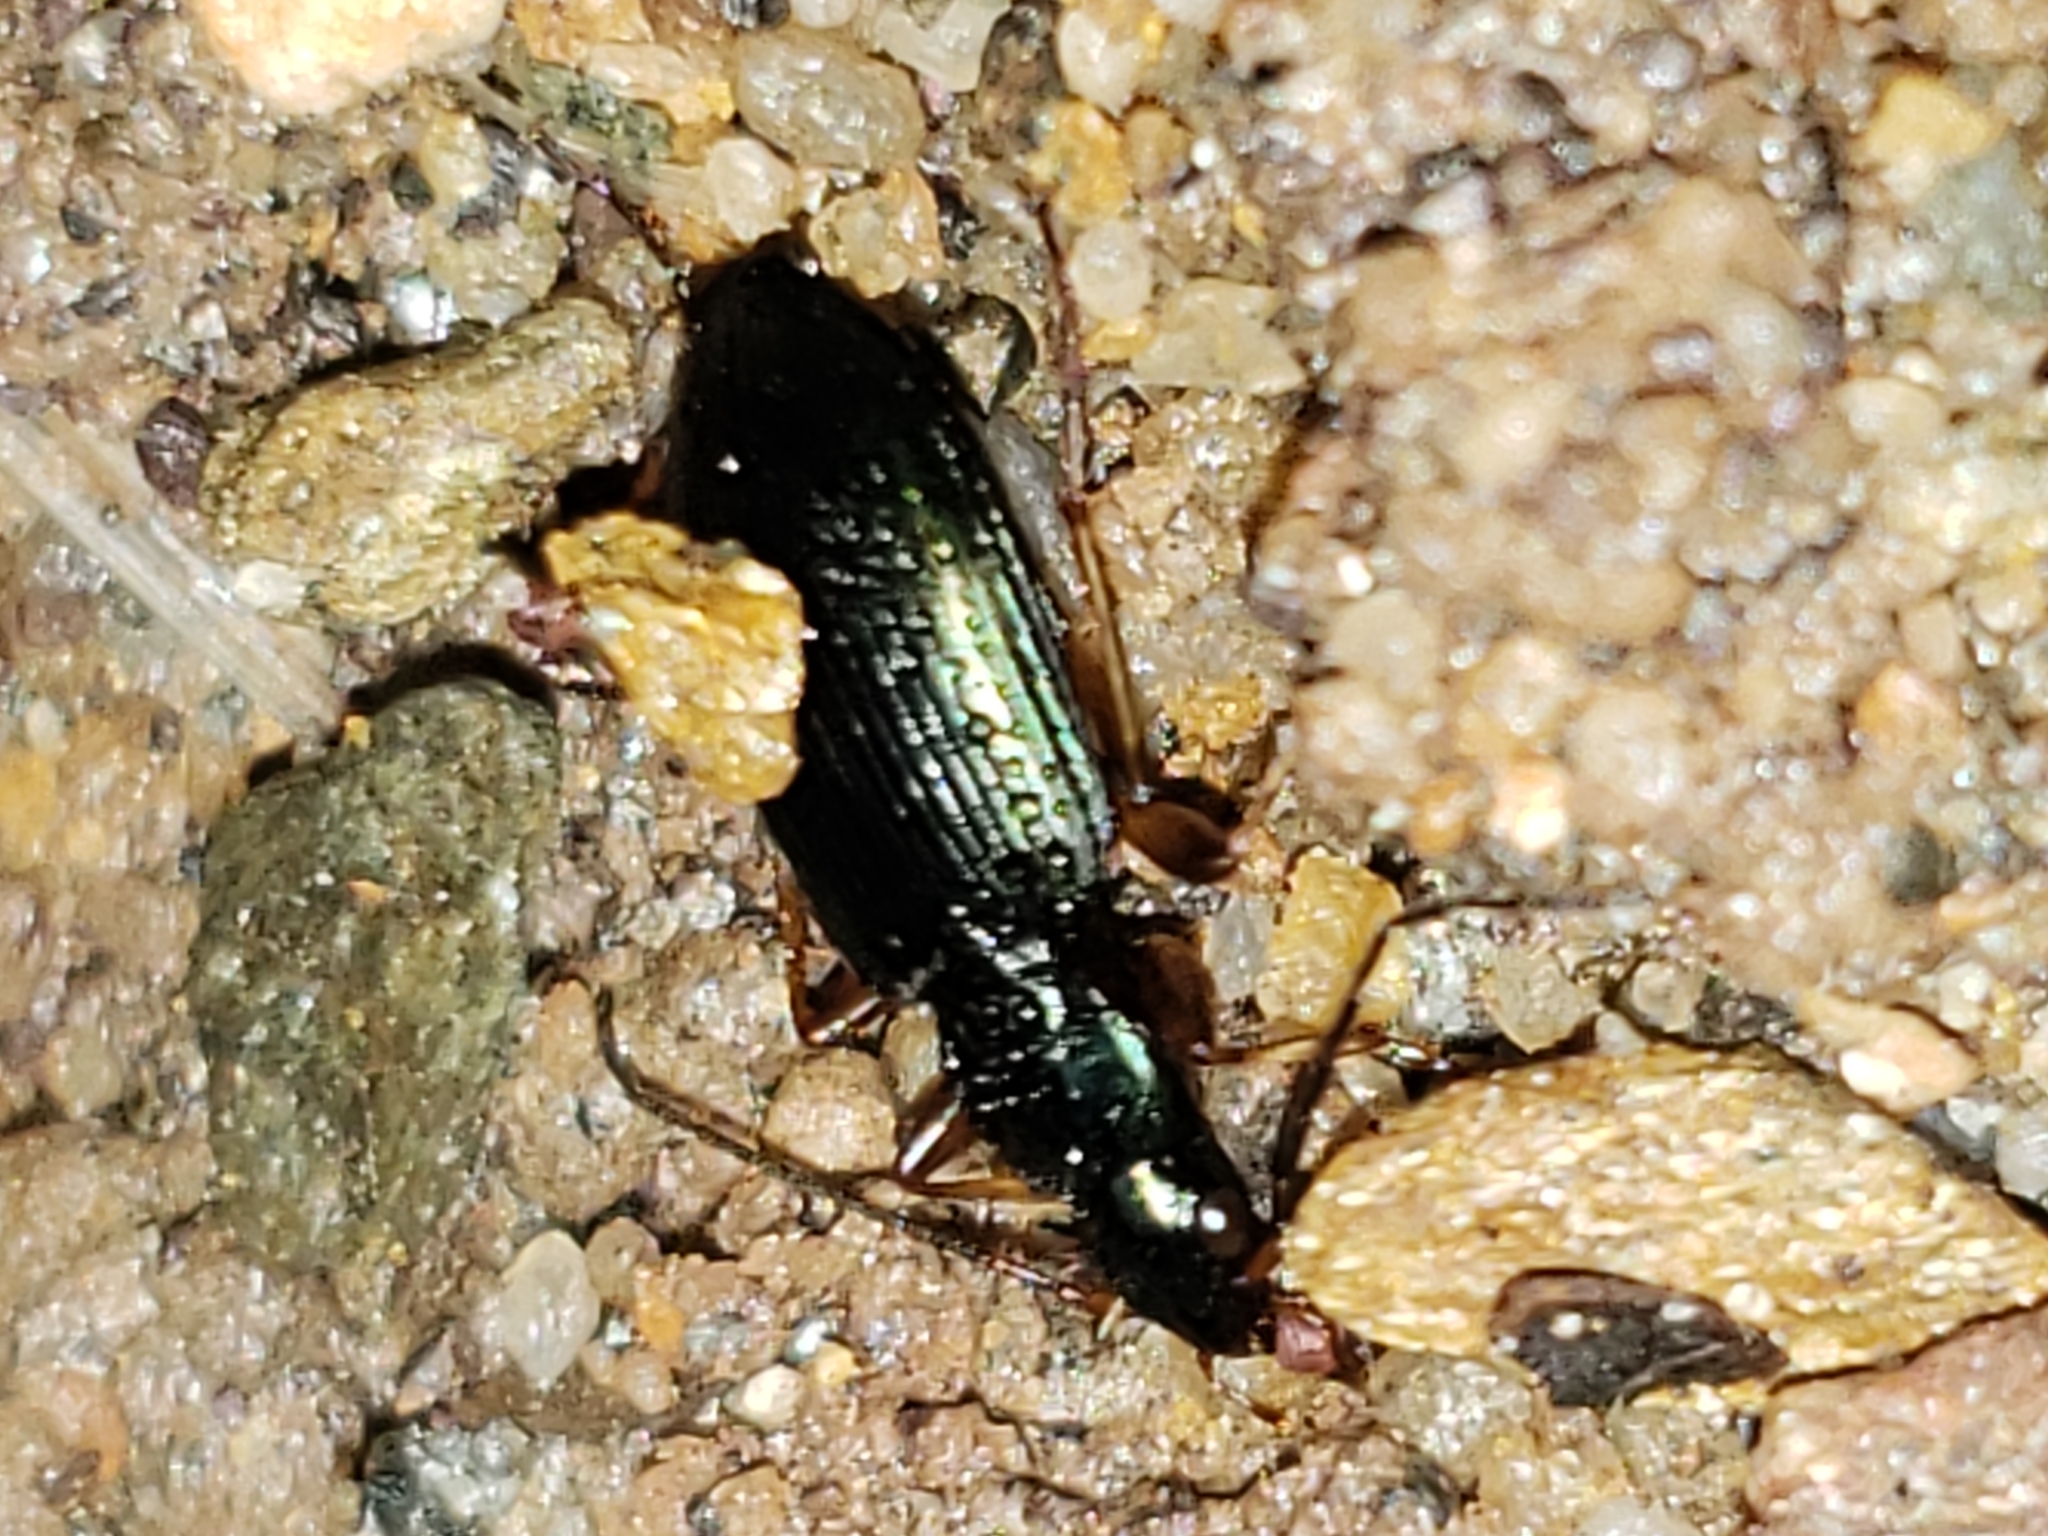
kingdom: Animalia
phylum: Arthropoda
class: Insecta
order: Coleoptera
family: Carabidae
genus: Agonum
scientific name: Agonum extensicolle
